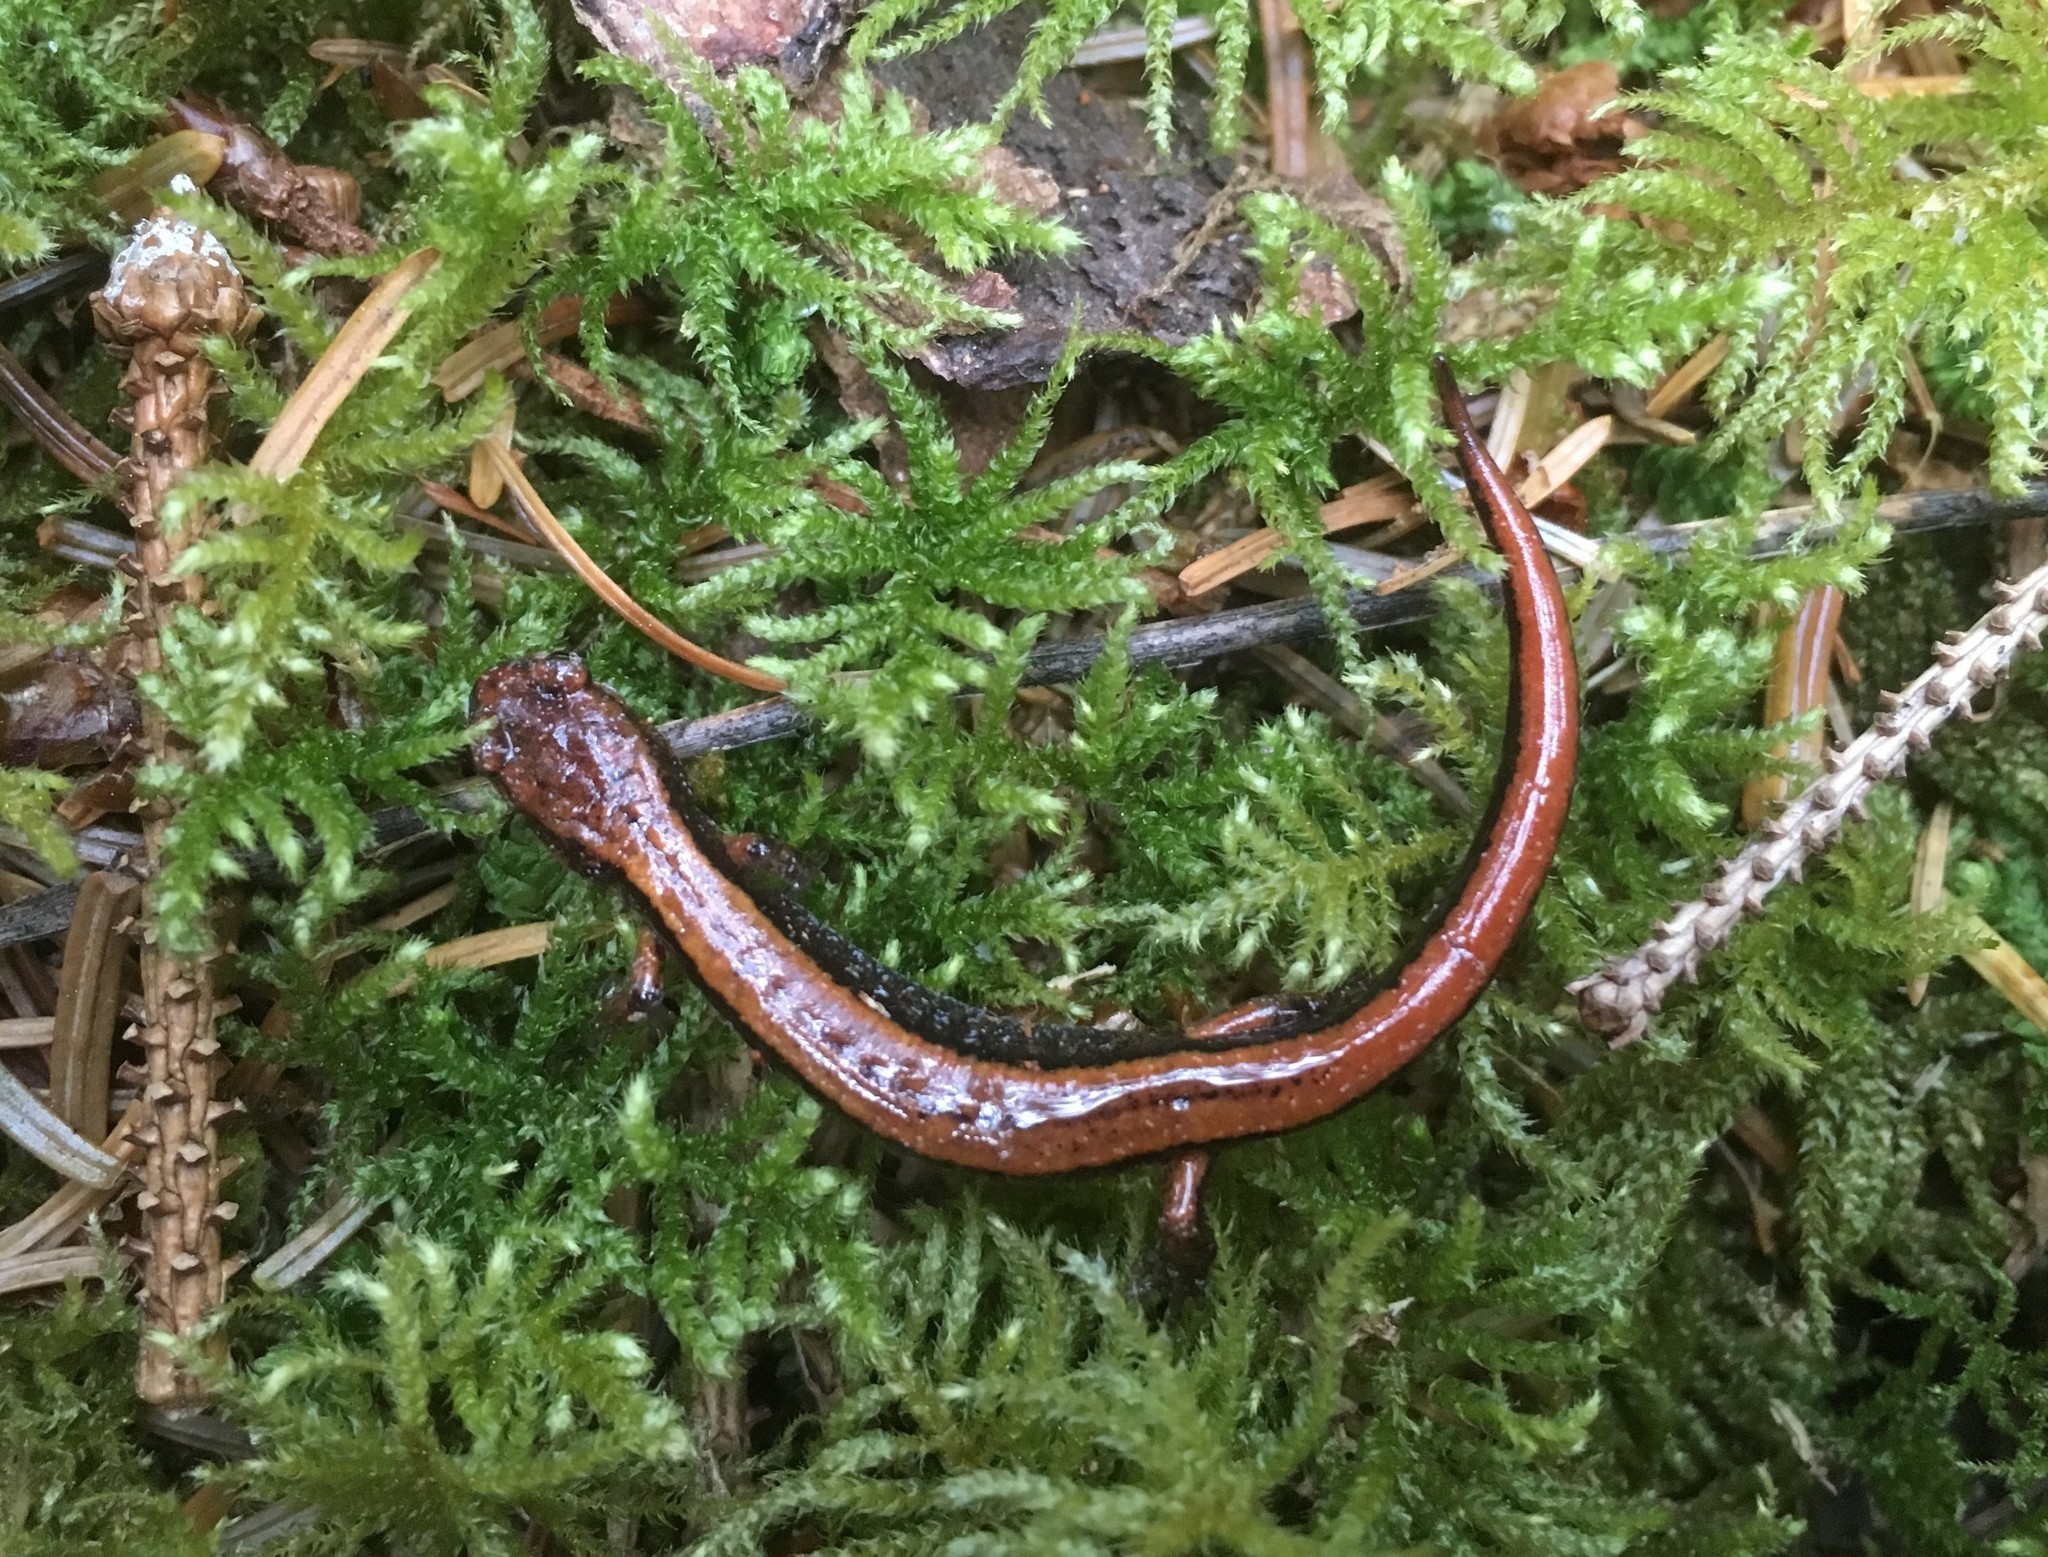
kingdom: Animalia
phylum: Chordata
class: Amphibia
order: Caudata
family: Plethodontidae
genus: Plethodon
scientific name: Plethodon vehiculum
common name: Western red-backed salamander
